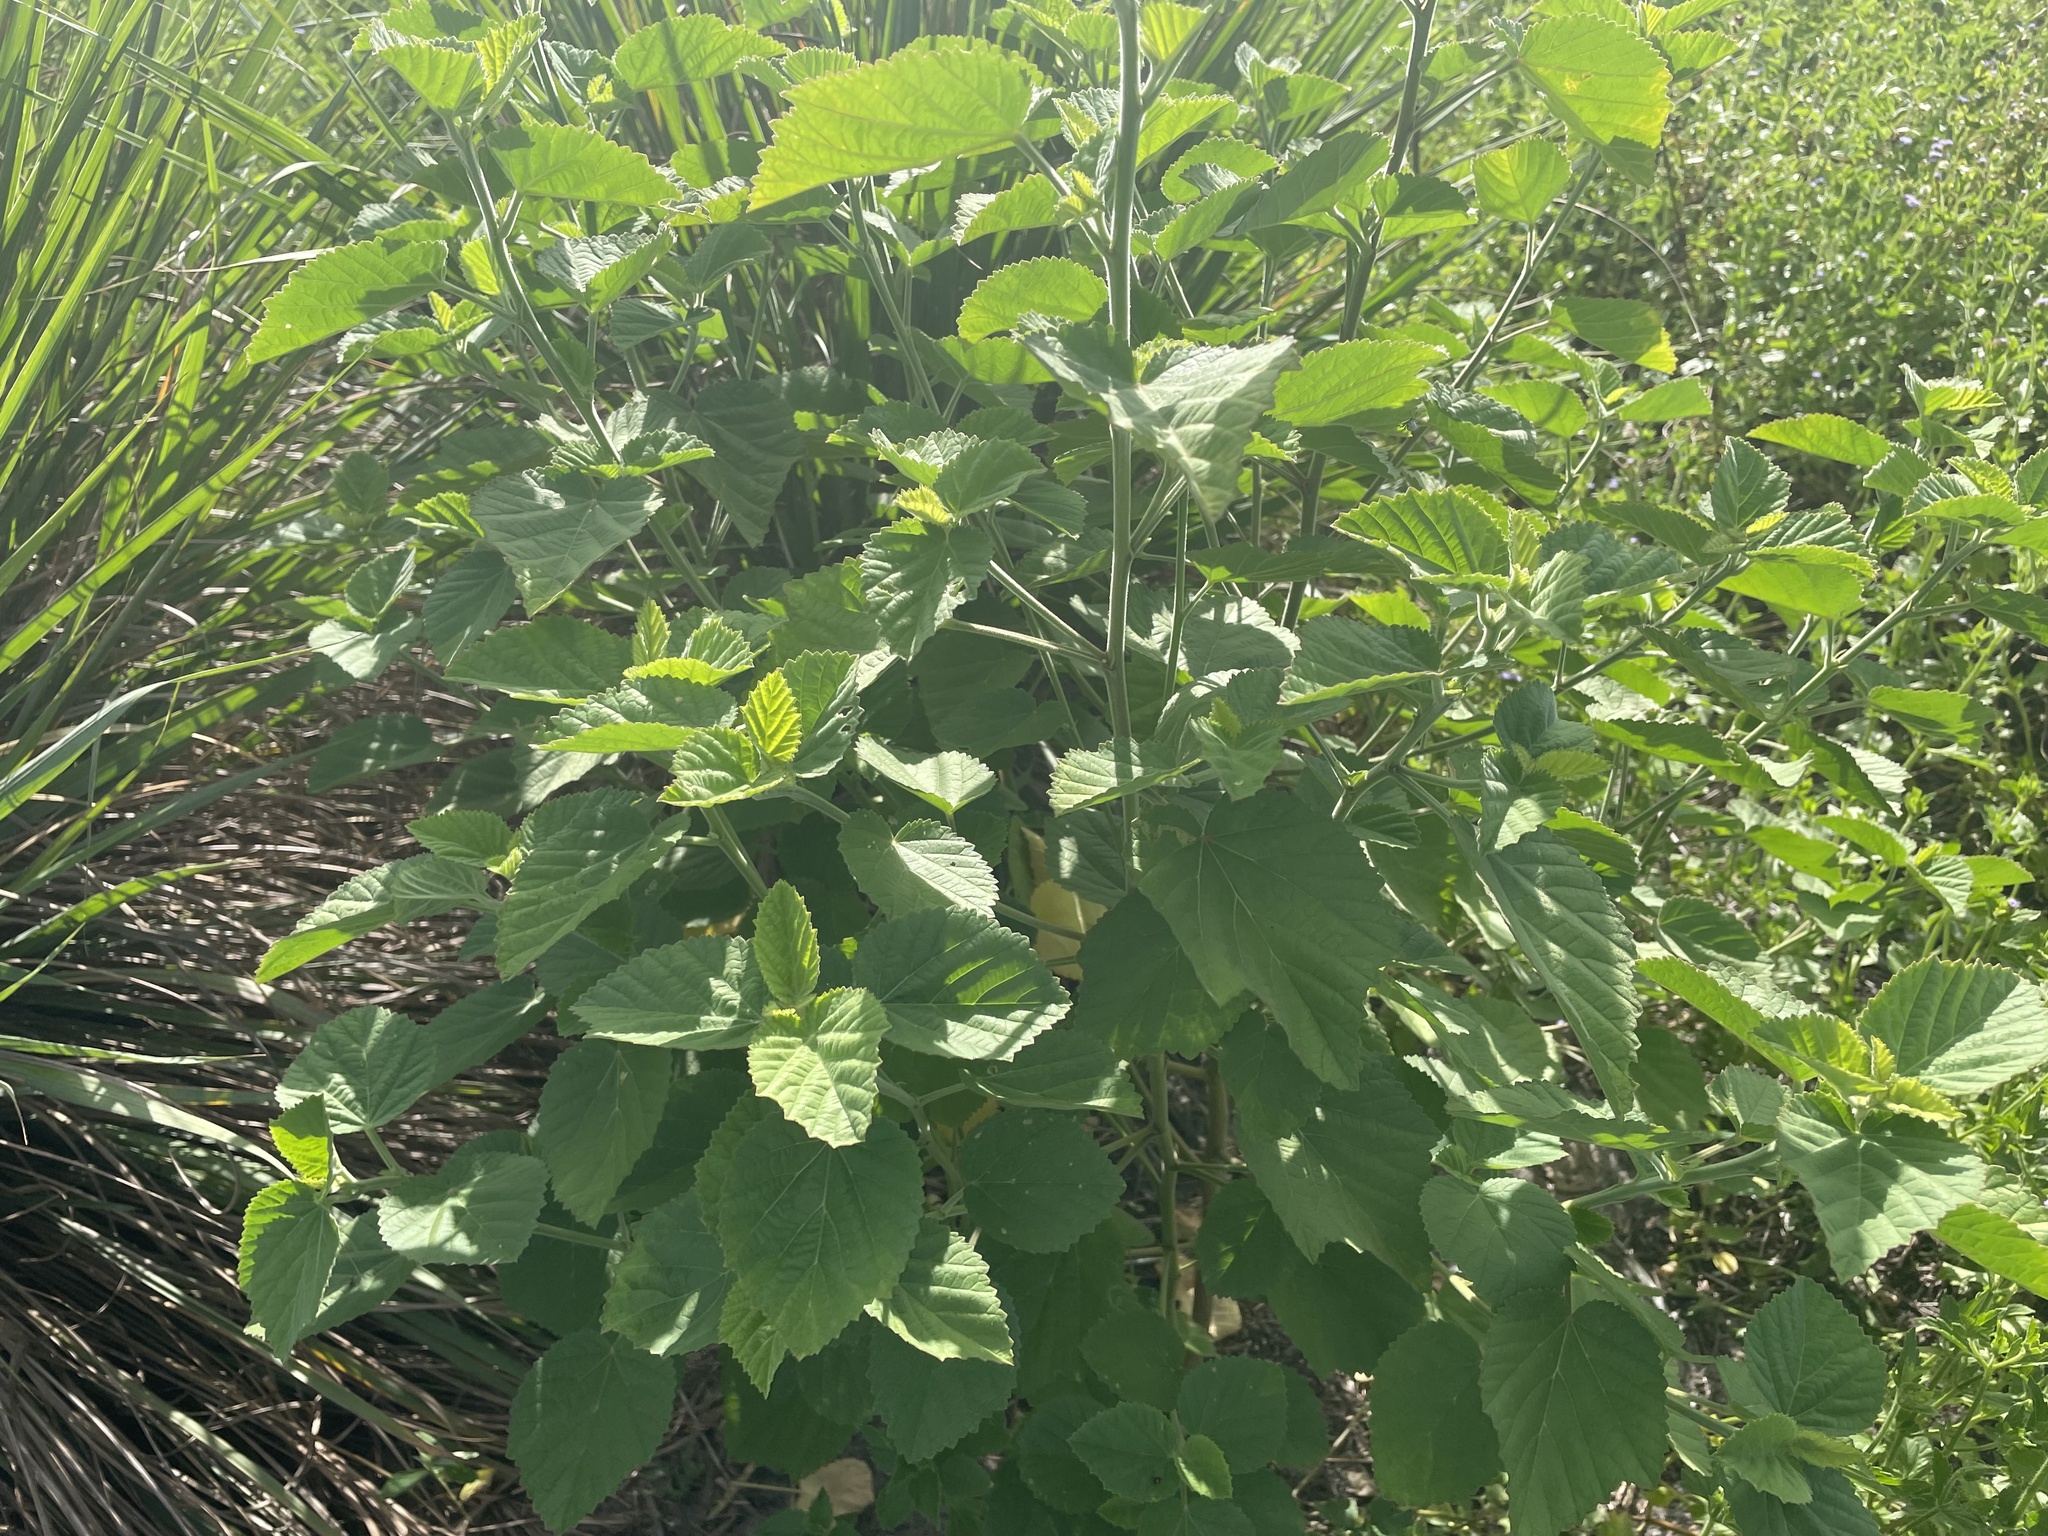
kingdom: Plantae
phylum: Tracheophyta
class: Magnoliopsida
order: Malvales
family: Malvaceae
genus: Urena
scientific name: Urena lobata
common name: Caesarweed
